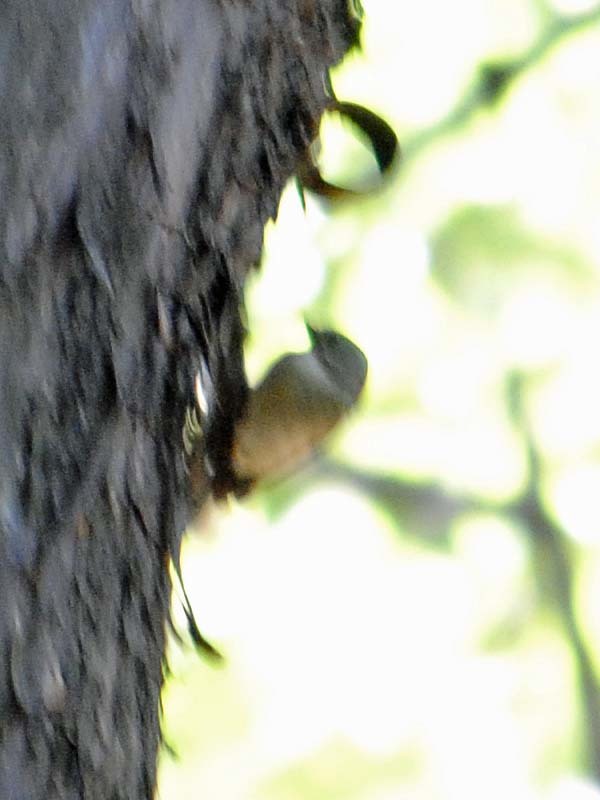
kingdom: Animalia
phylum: Chordata
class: Aves
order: Passeriformes
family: Thraupidae
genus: Diglossa
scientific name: Diglossa baritula
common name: Cinnamon-bellied flowerpiercer
